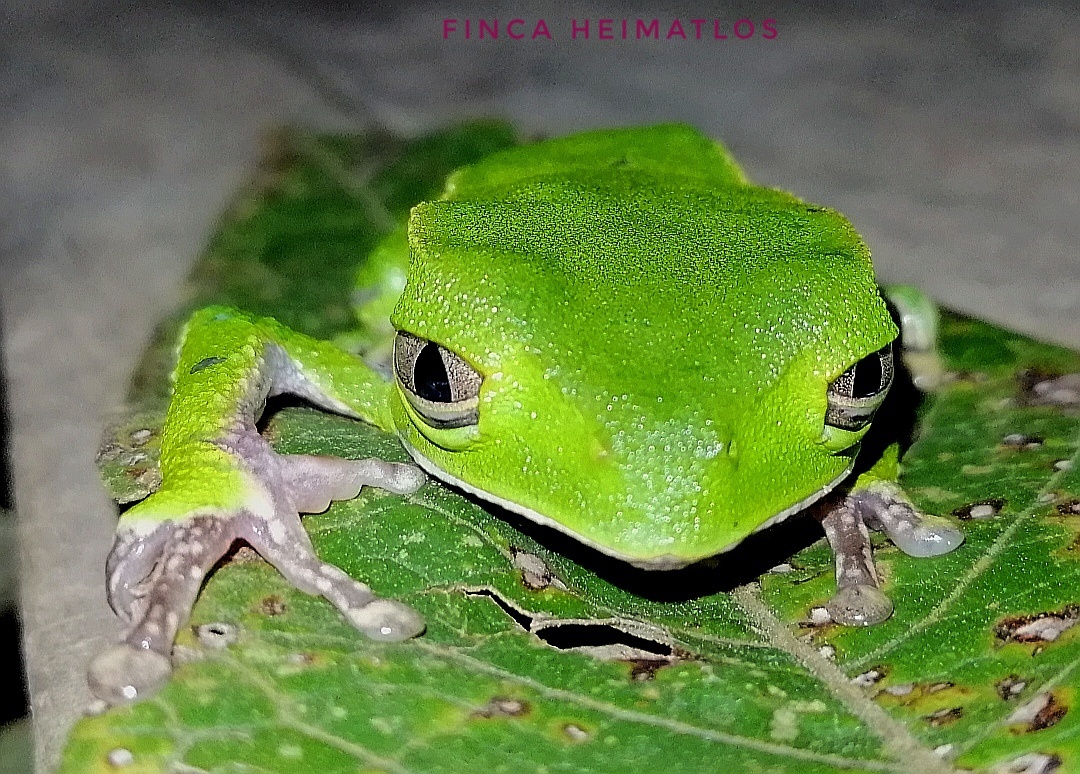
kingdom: Animalia
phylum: Chordata
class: Amphibia
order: Anura
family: Phyllomedusidae
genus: Phyllomedusa
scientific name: Phyllomedusa vaillantii
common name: White-lined leaf frog
